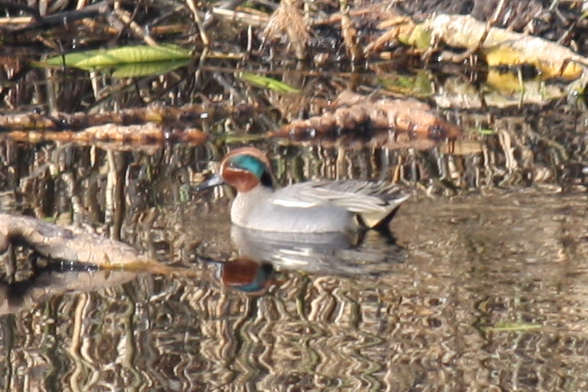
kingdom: Animalia
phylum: Chordata
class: Aves
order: Anseriformes
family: Anatidae
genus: Anas
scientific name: Anas crecca
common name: Eurasian teal
